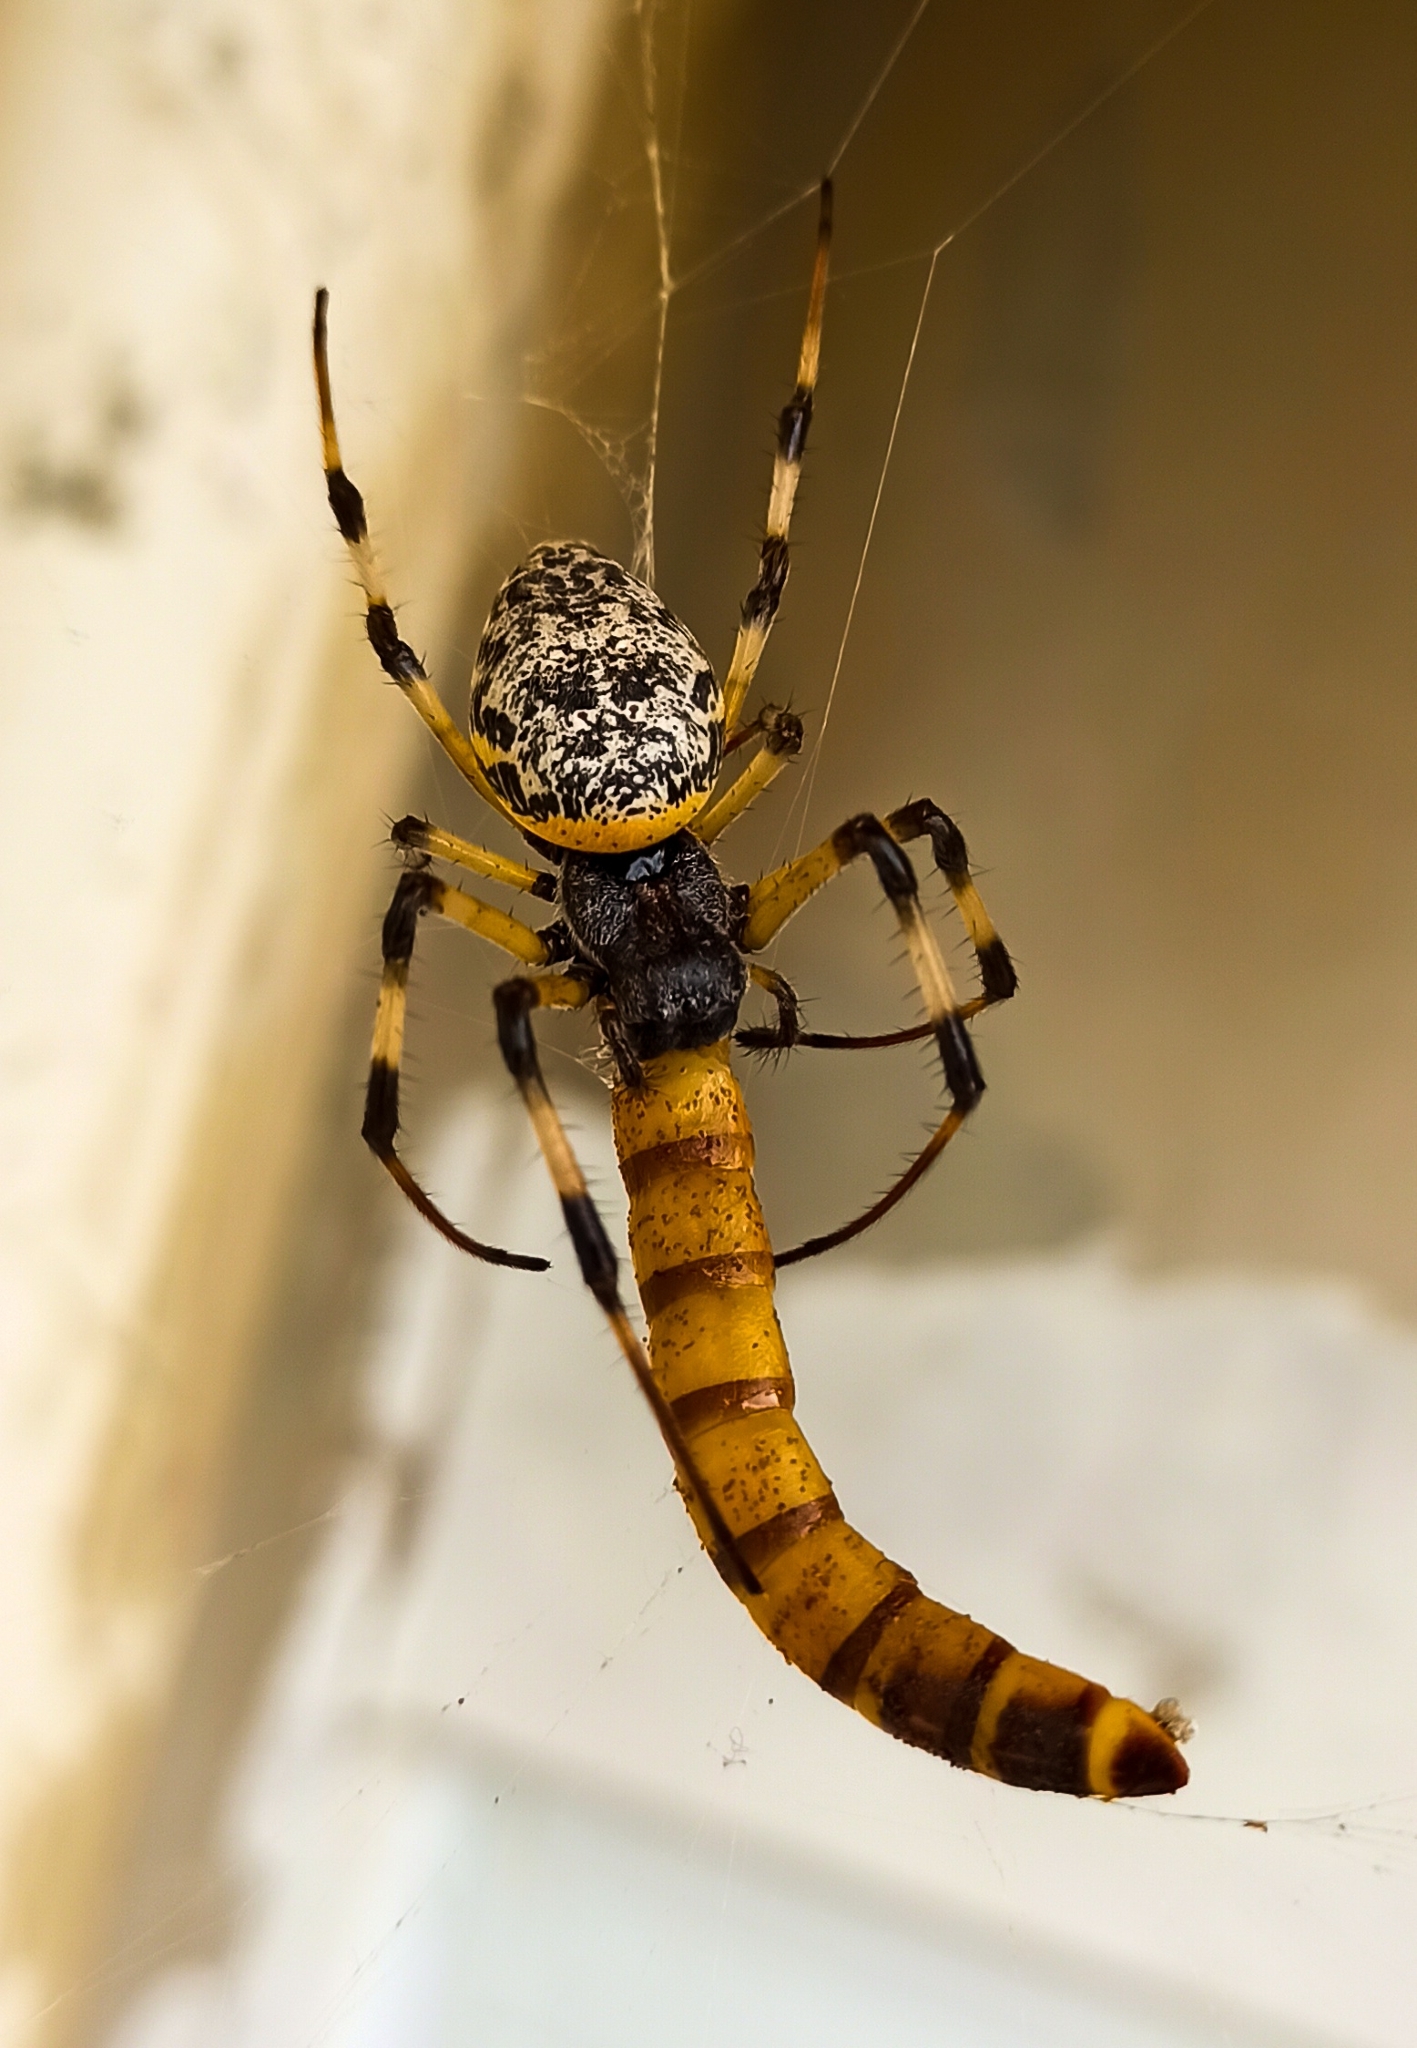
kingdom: Animalia
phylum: Arthropoda
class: Arachnida
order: Araneae
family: Araneidae
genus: Nephilingis
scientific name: Nephilingis cruentata
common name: African hermit spider
